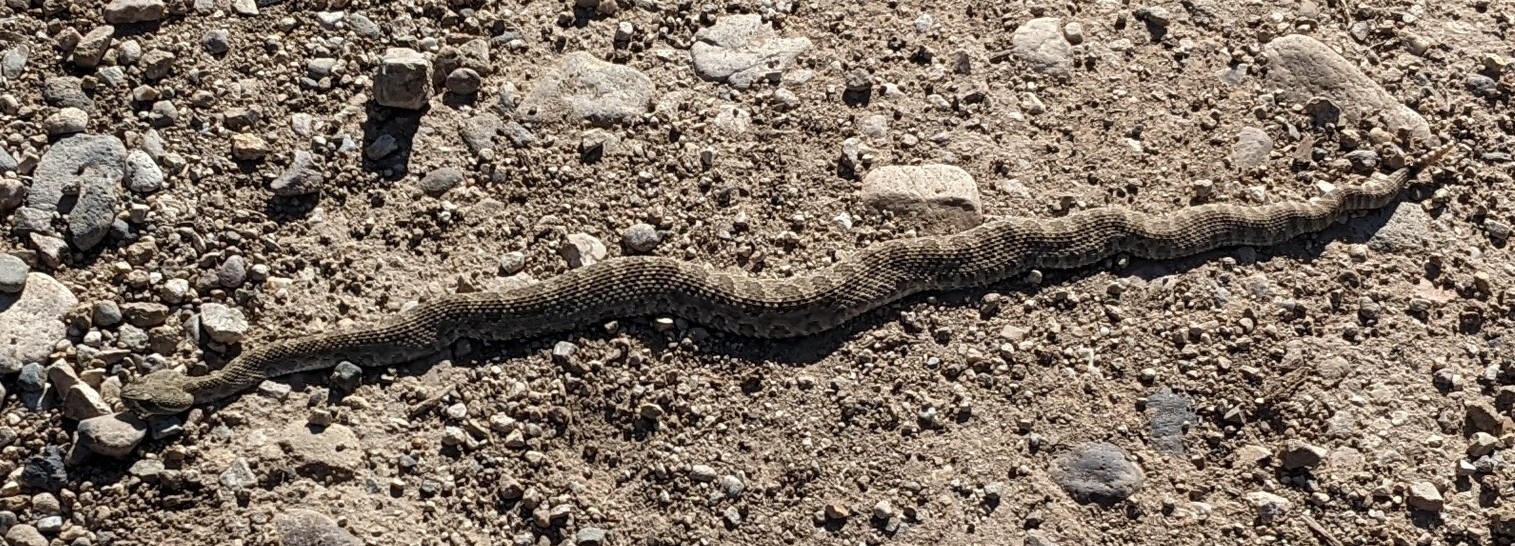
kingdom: Animalia
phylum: Chordata
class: Squamata
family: Viperidae
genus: Crotalus
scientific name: Crotalus viridis
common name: Prairie rattlesnake
